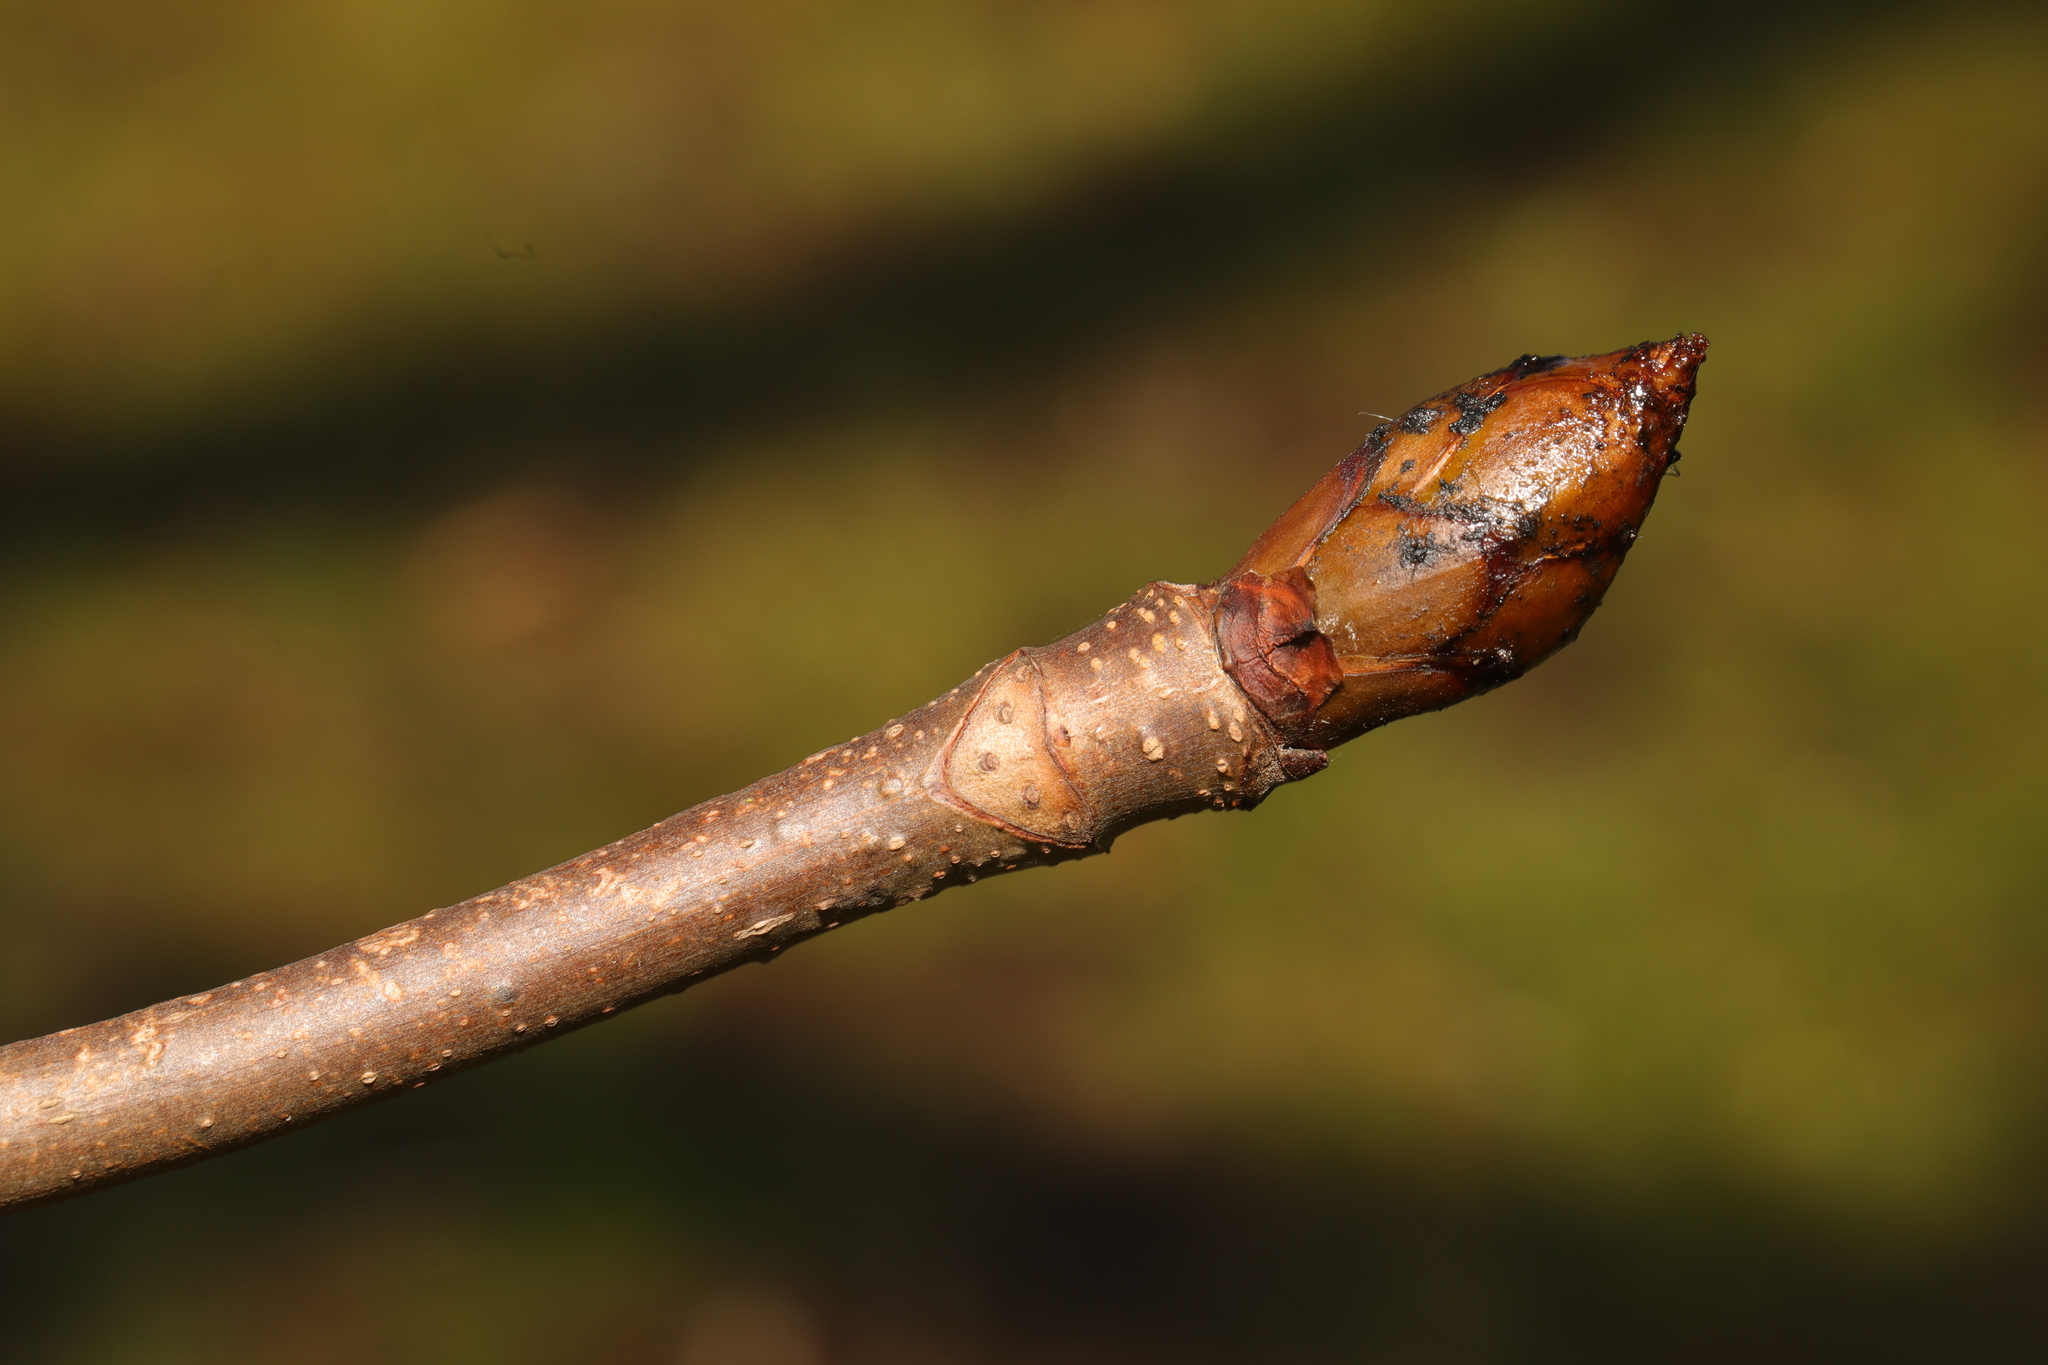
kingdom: Plantae
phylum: Tracheophyta
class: Magnoliopsida
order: Sapindales
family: Sapindaceae
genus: Aesculus
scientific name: Aesculus hippocastanum
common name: Horse-chestnut
